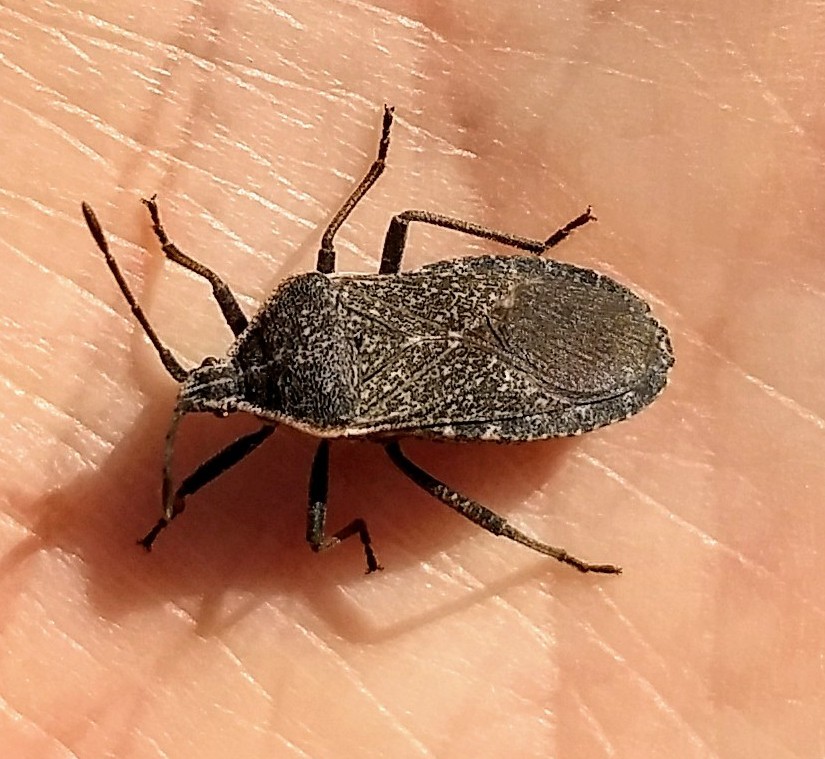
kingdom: Animalia
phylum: Arthropoda
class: Insecta
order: Hemiptera
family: Coreidae
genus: Anasa
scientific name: Anasa tristis
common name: Squash bug
